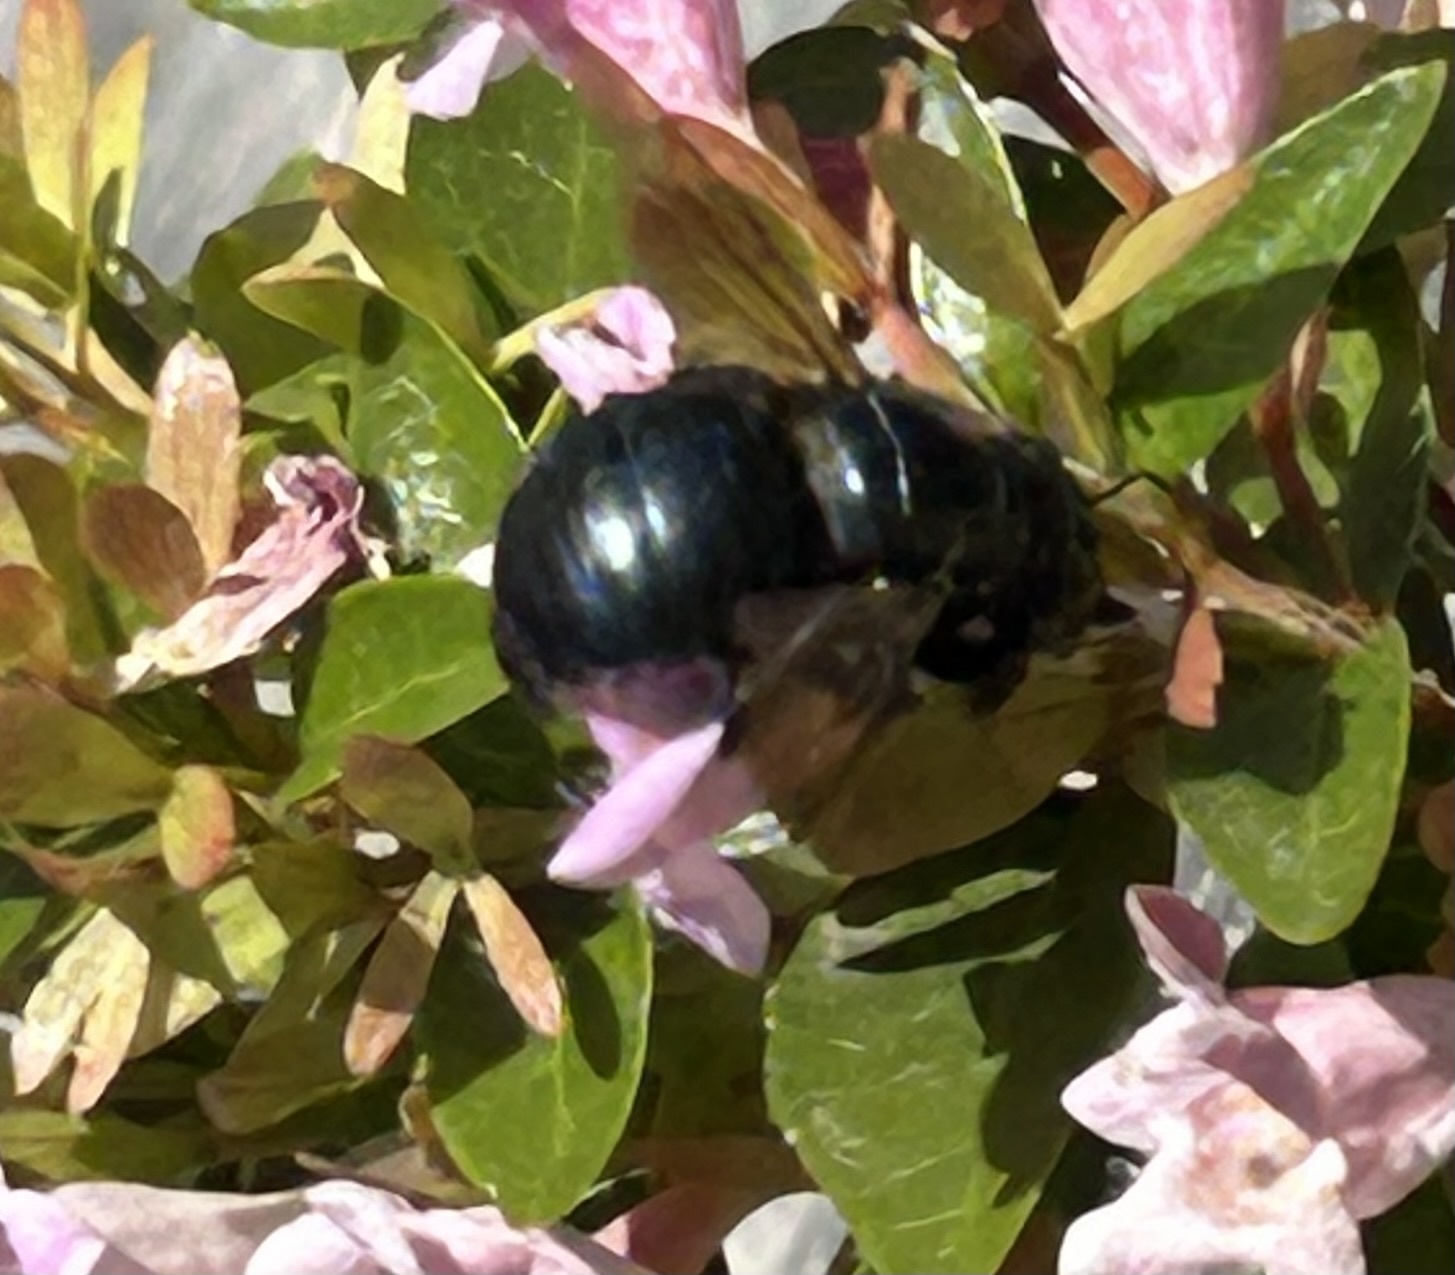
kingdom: Animalia
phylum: Arthropoda
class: Insecta
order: Hymenoptera
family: Apidae
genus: Xylocopa
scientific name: Xylocopa splendidula
